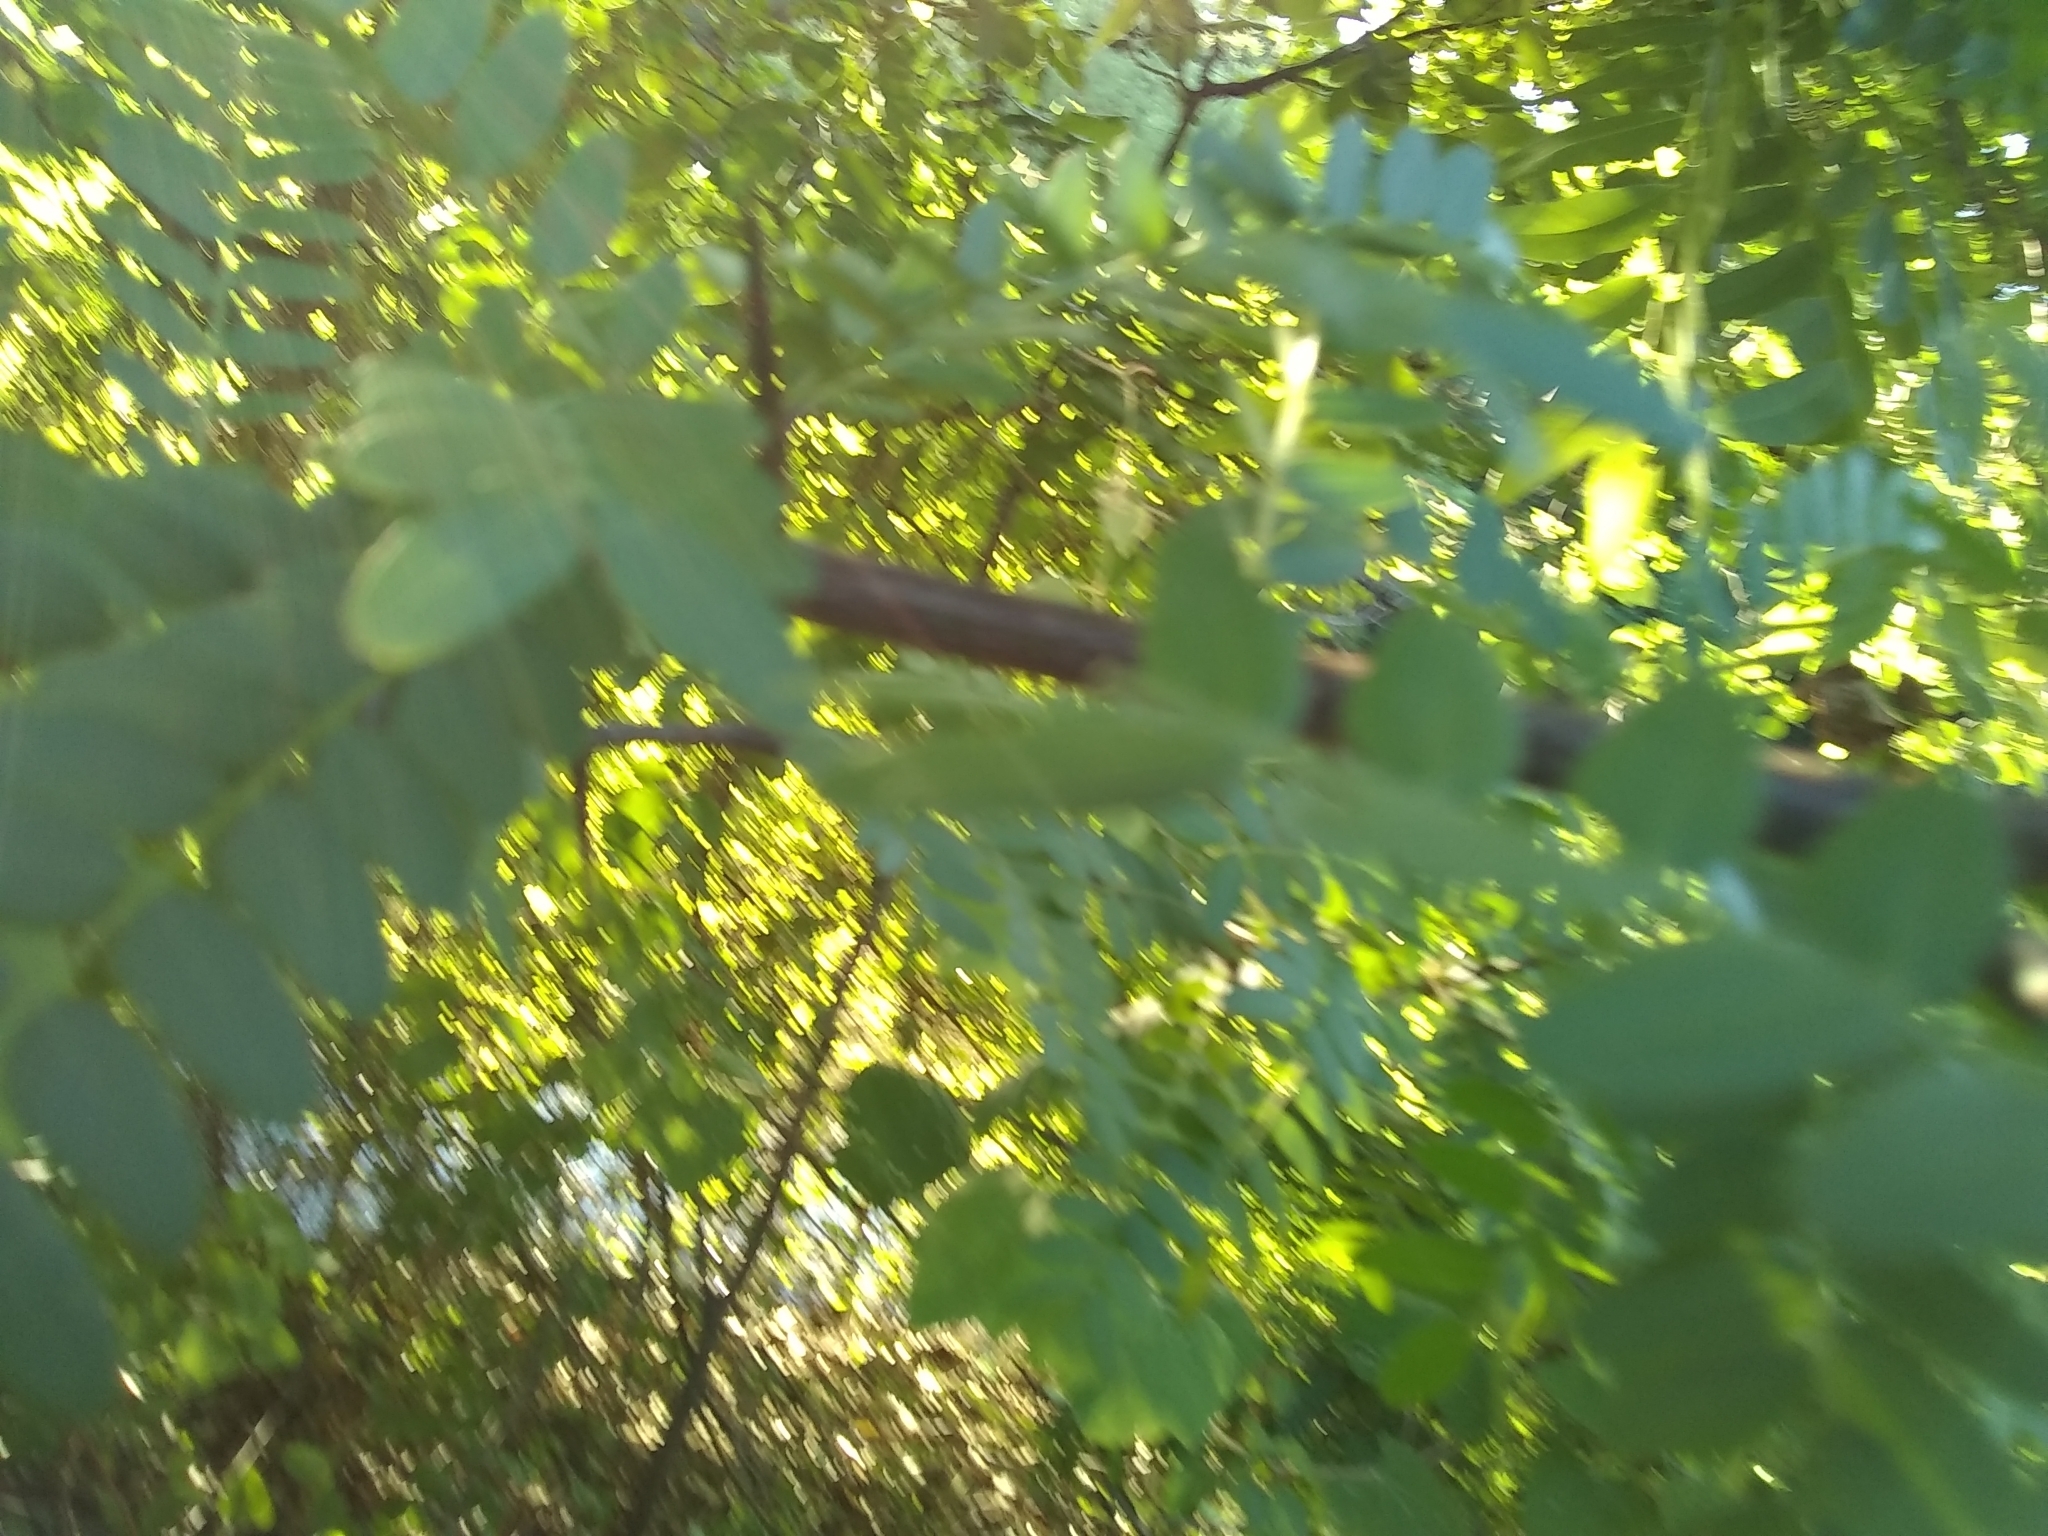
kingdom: Plantae
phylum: Tracheophyta
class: Magnoliopsida
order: Fabales
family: Fabaceae
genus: Gleditsia
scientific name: Gleditsia triacanthos
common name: Common honeylocust
